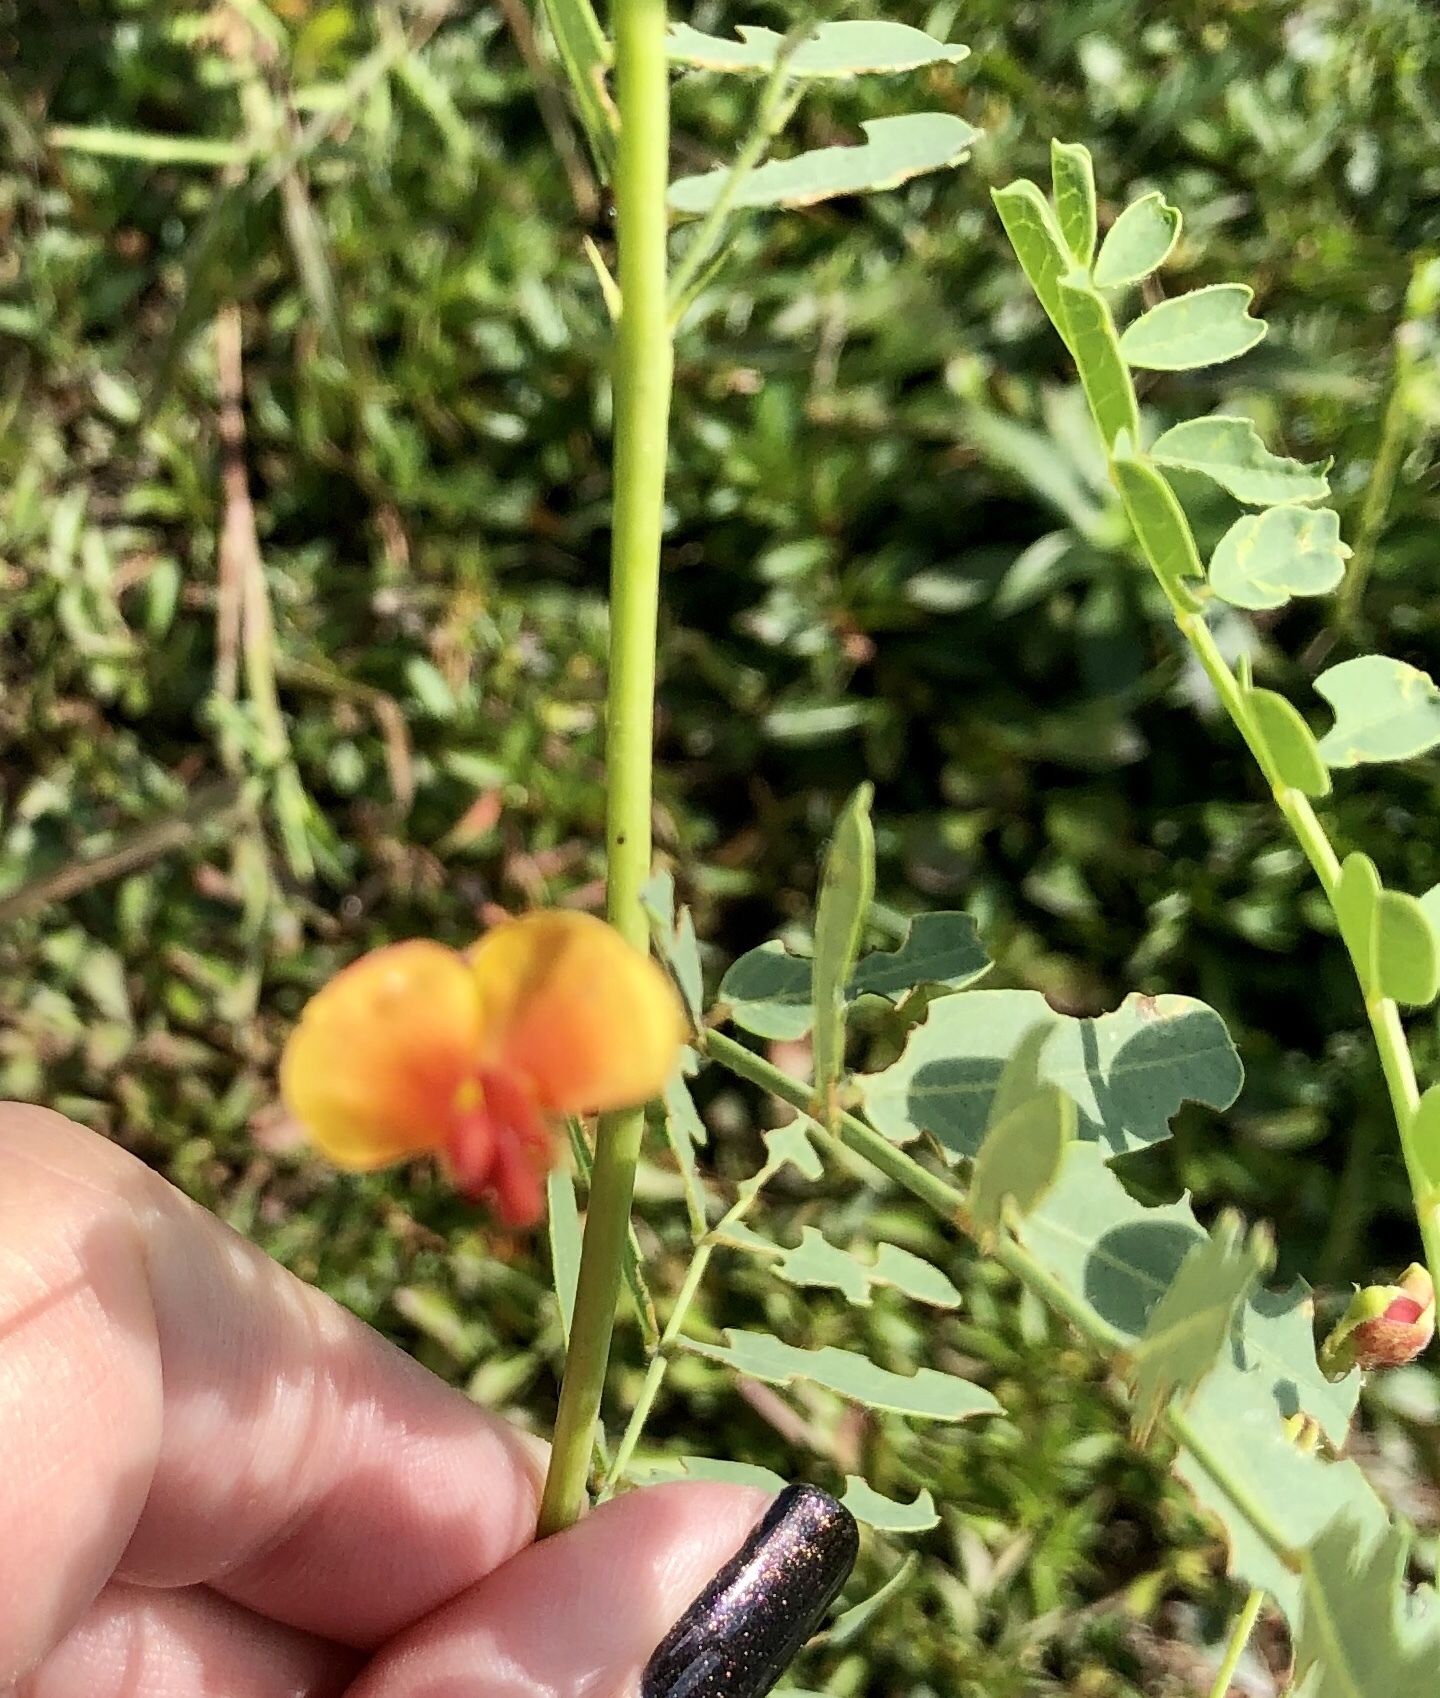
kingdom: Plantae
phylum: Tracheophyta
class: Magnoliopsida
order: Fabales
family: Fabaceae
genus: Sesbania
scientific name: Sesbania vesicaria
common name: Bagpod
